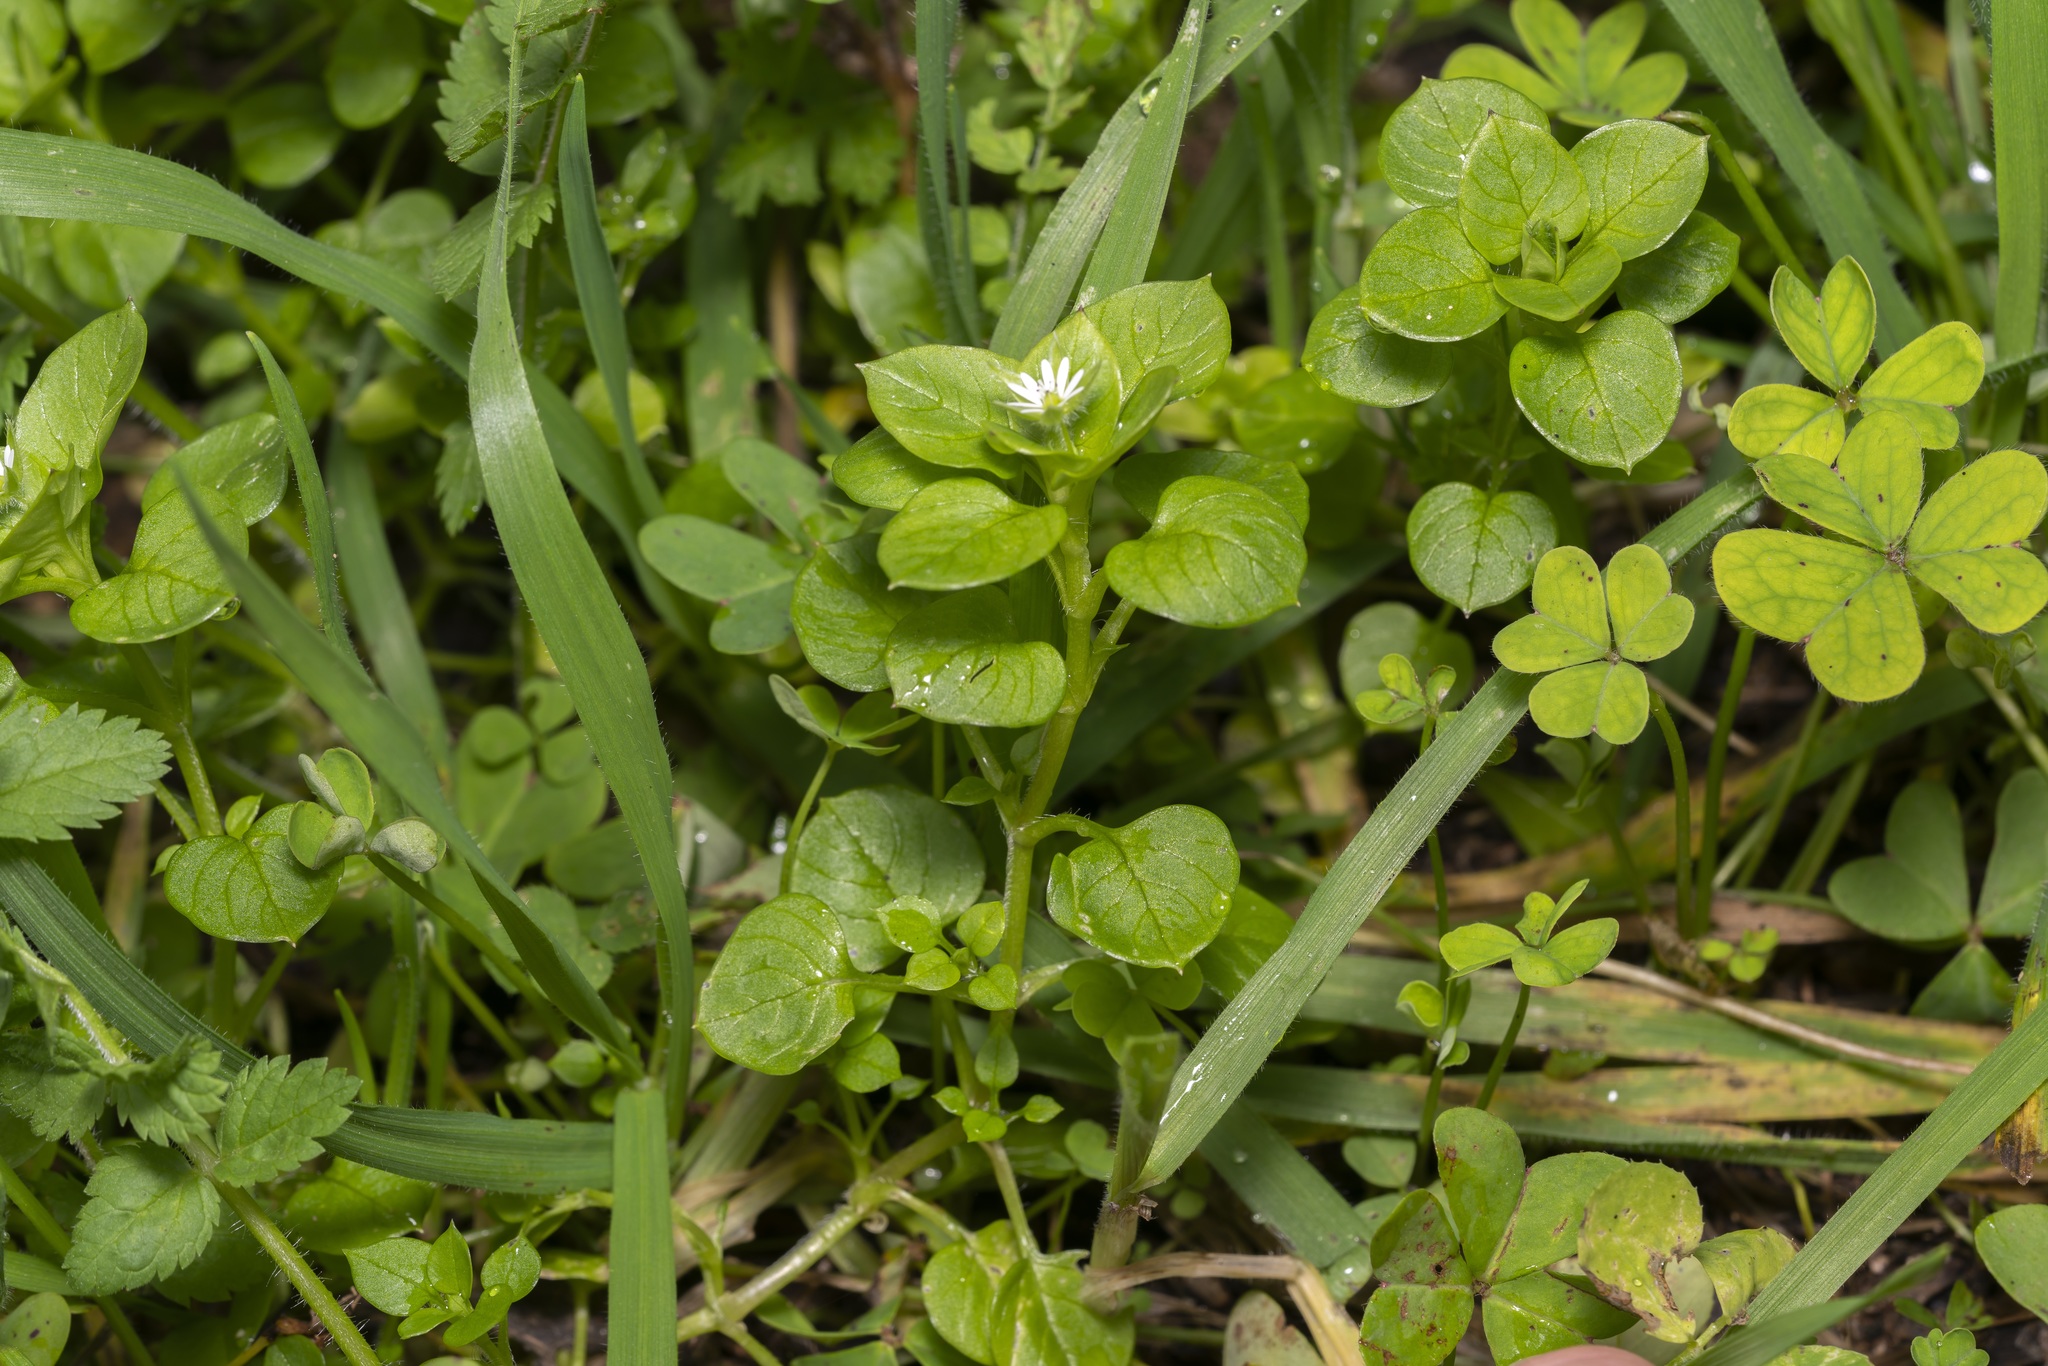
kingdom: Plantae
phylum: Tracheophyta
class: Magnoliopsida
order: Caryophyllales
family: Caryophyllaceae
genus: Stellaria
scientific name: Stellaria media
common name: Common chickweed
